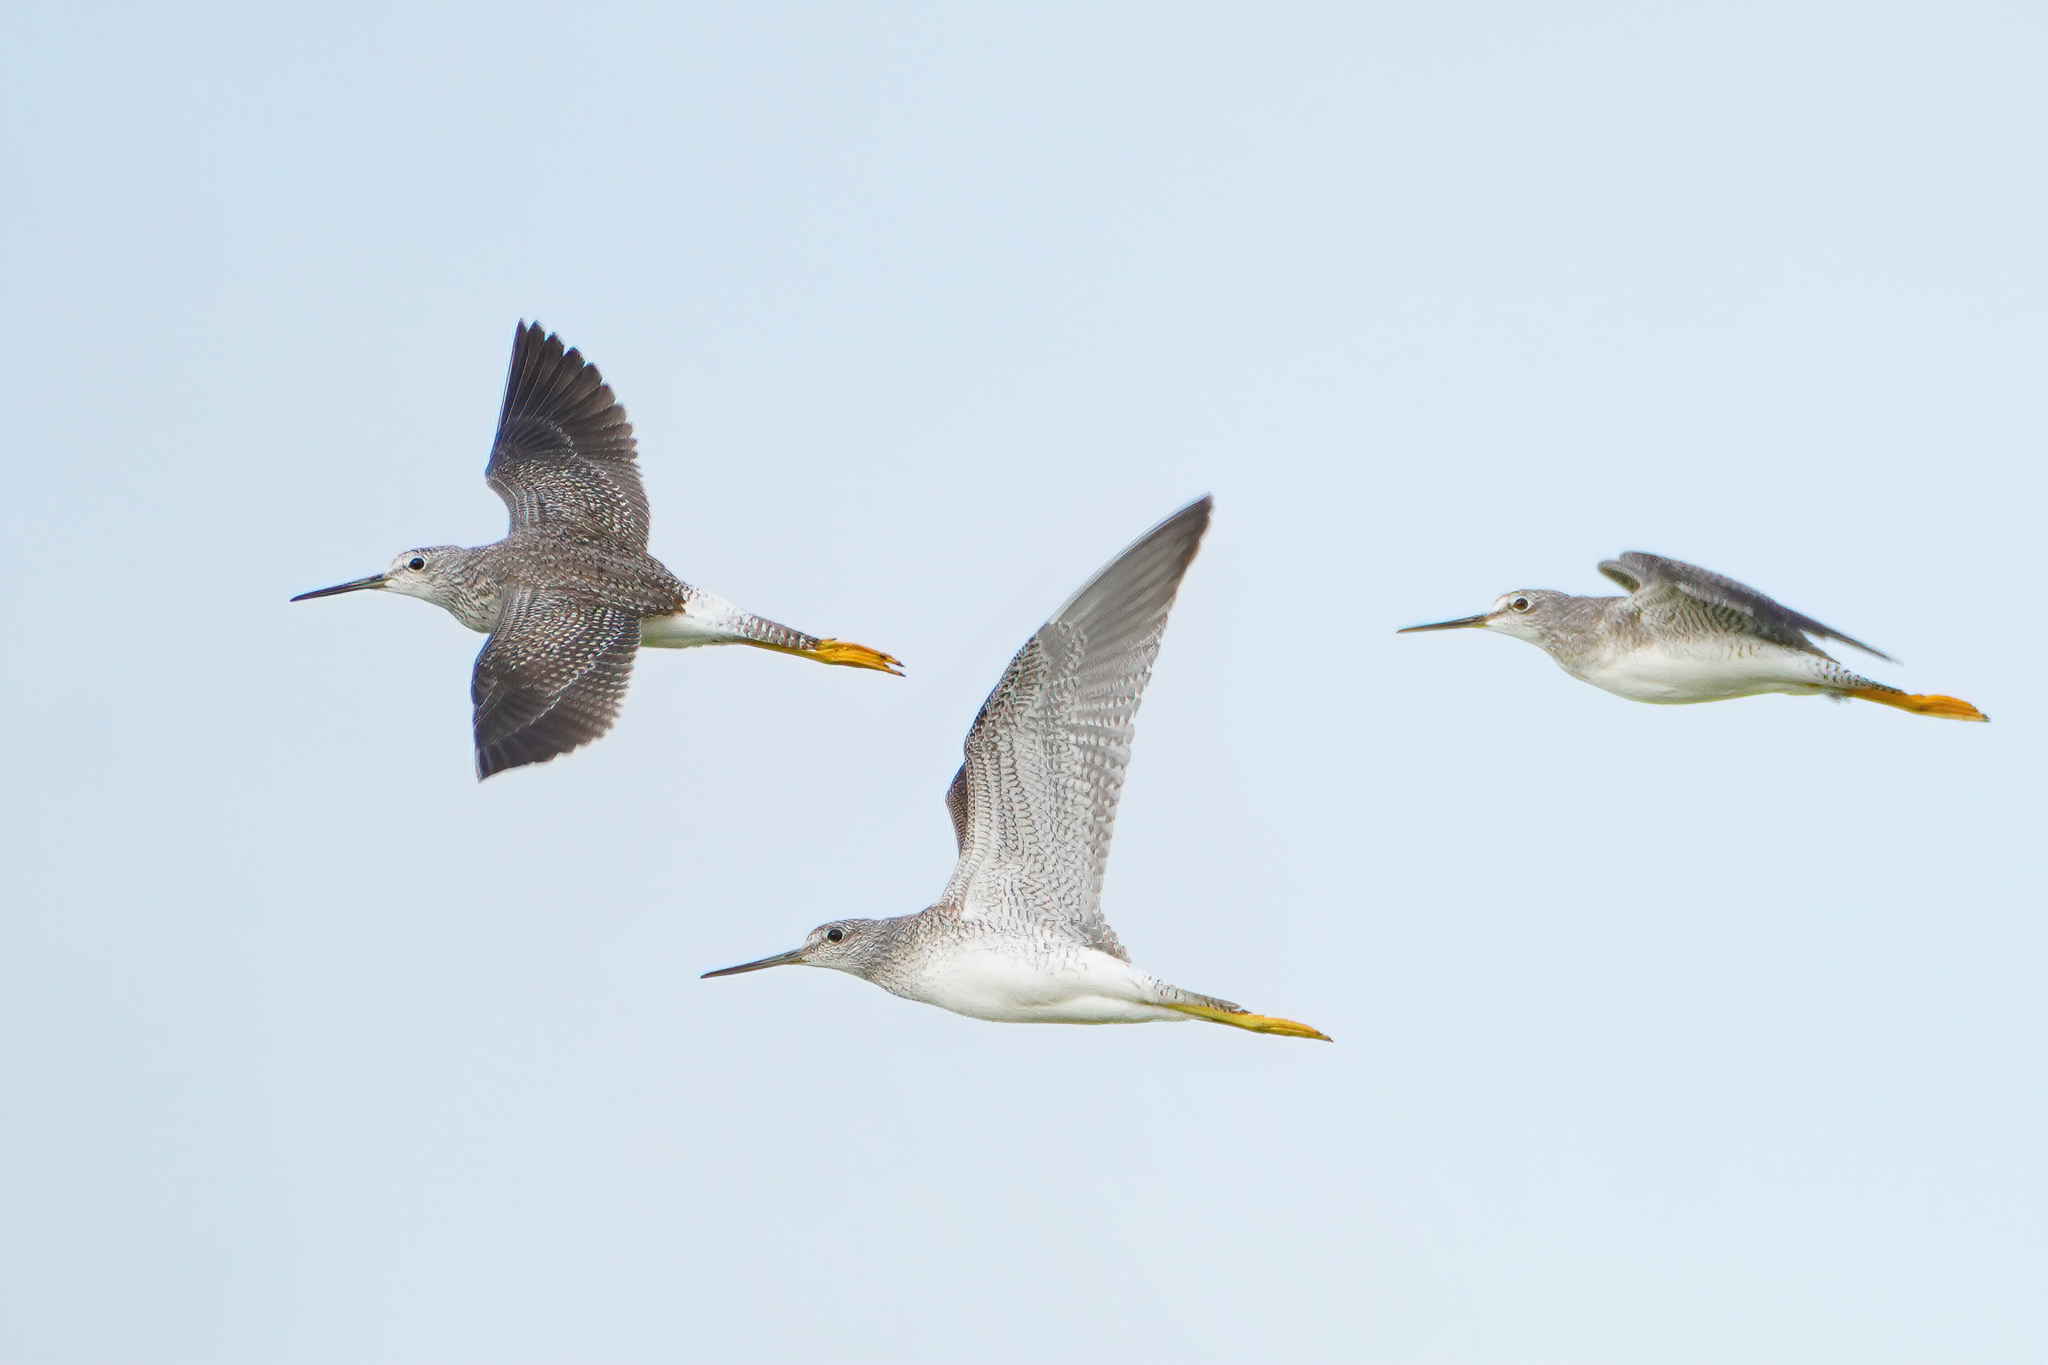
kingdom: Animalia
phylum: Chordata
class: Aves
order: Charadriiformes
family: Scolopacidae
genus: Tringa
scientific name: Tringa melanoleuca
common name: Greater yellowlegs
